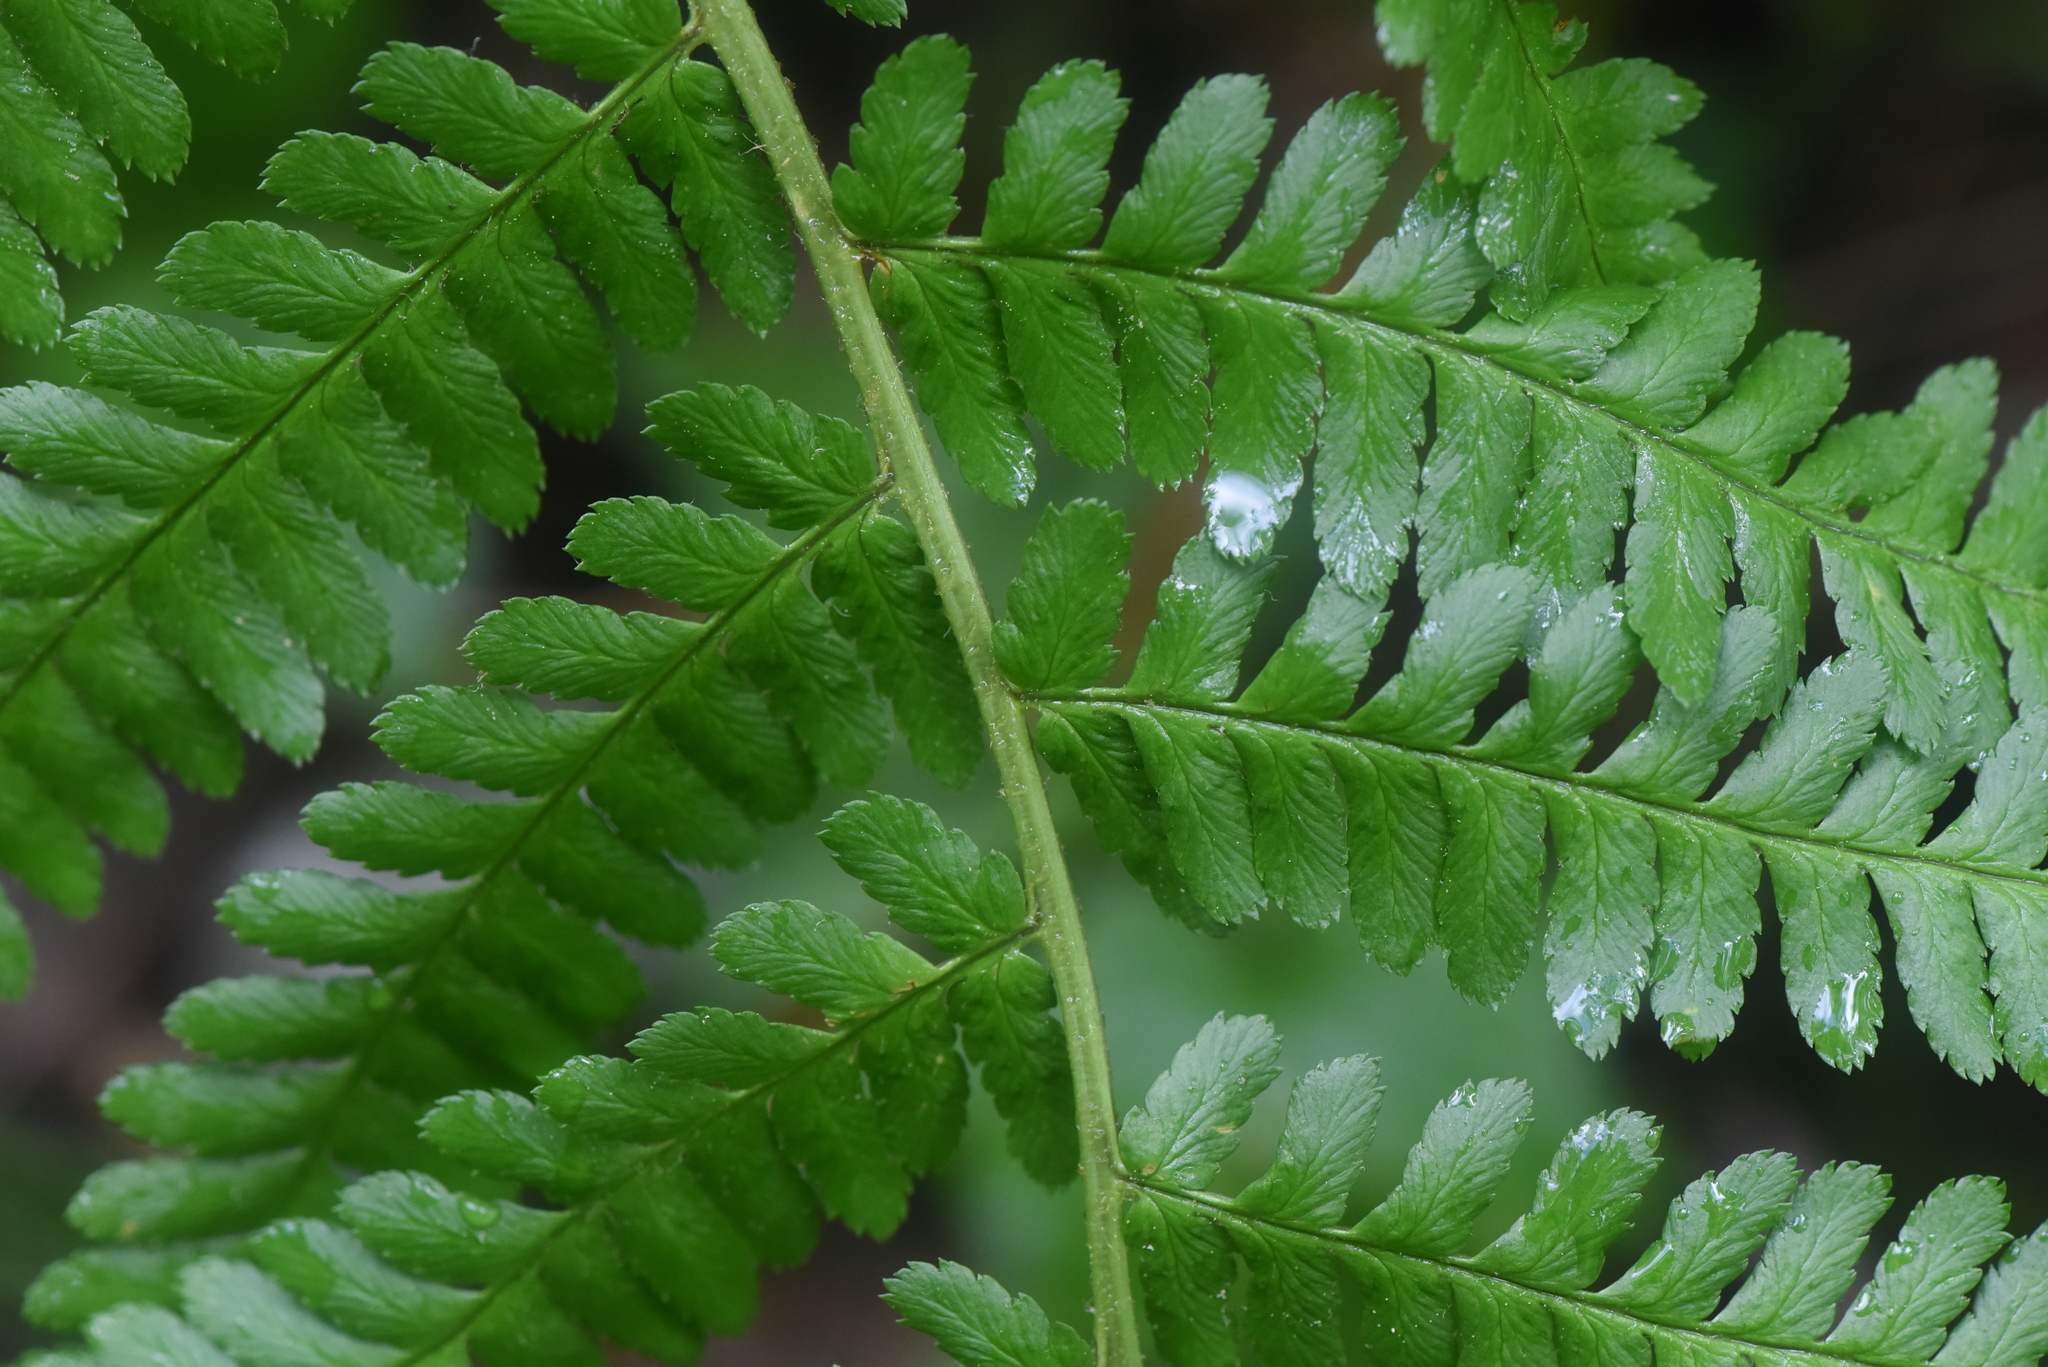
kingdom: Plantae
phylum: Tracheophyta
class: Polypodiopsida
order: Polypodiales
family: Dryopteridaceae
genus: Dryopteris
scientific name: Dryopteris filix-mas
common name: Male fern
